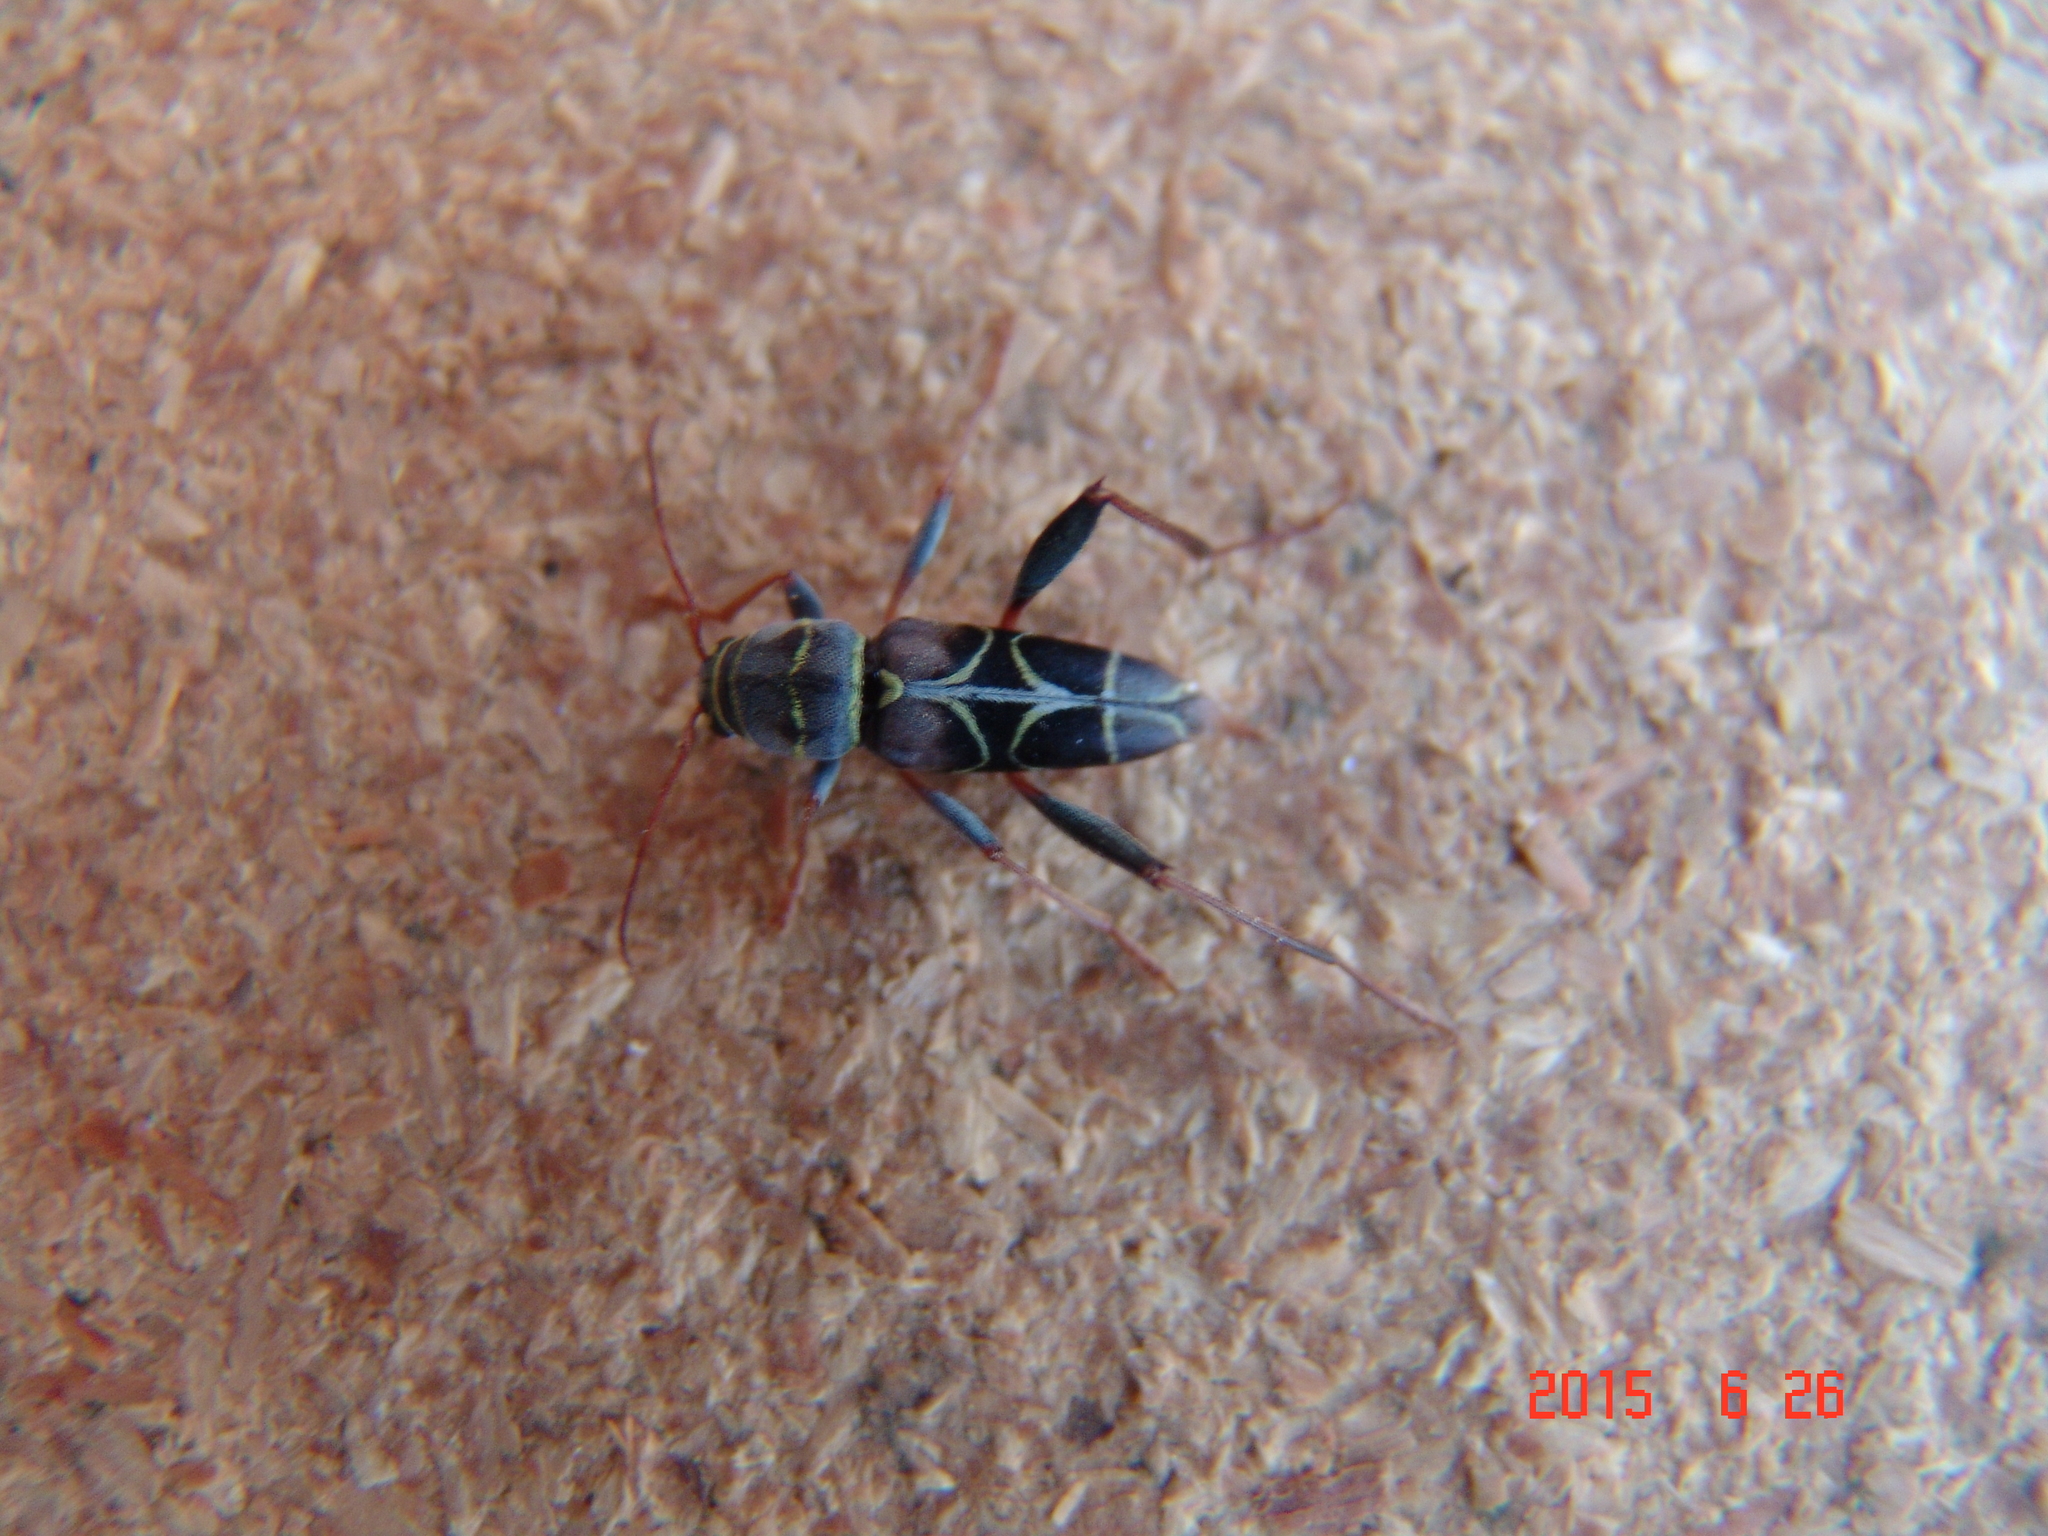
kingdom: Animalia
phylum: Arthropoda
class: Insecta
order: Coleoptera
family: Cerambycidae
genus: Neoclytus
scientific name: Neoclytus scutellaris
